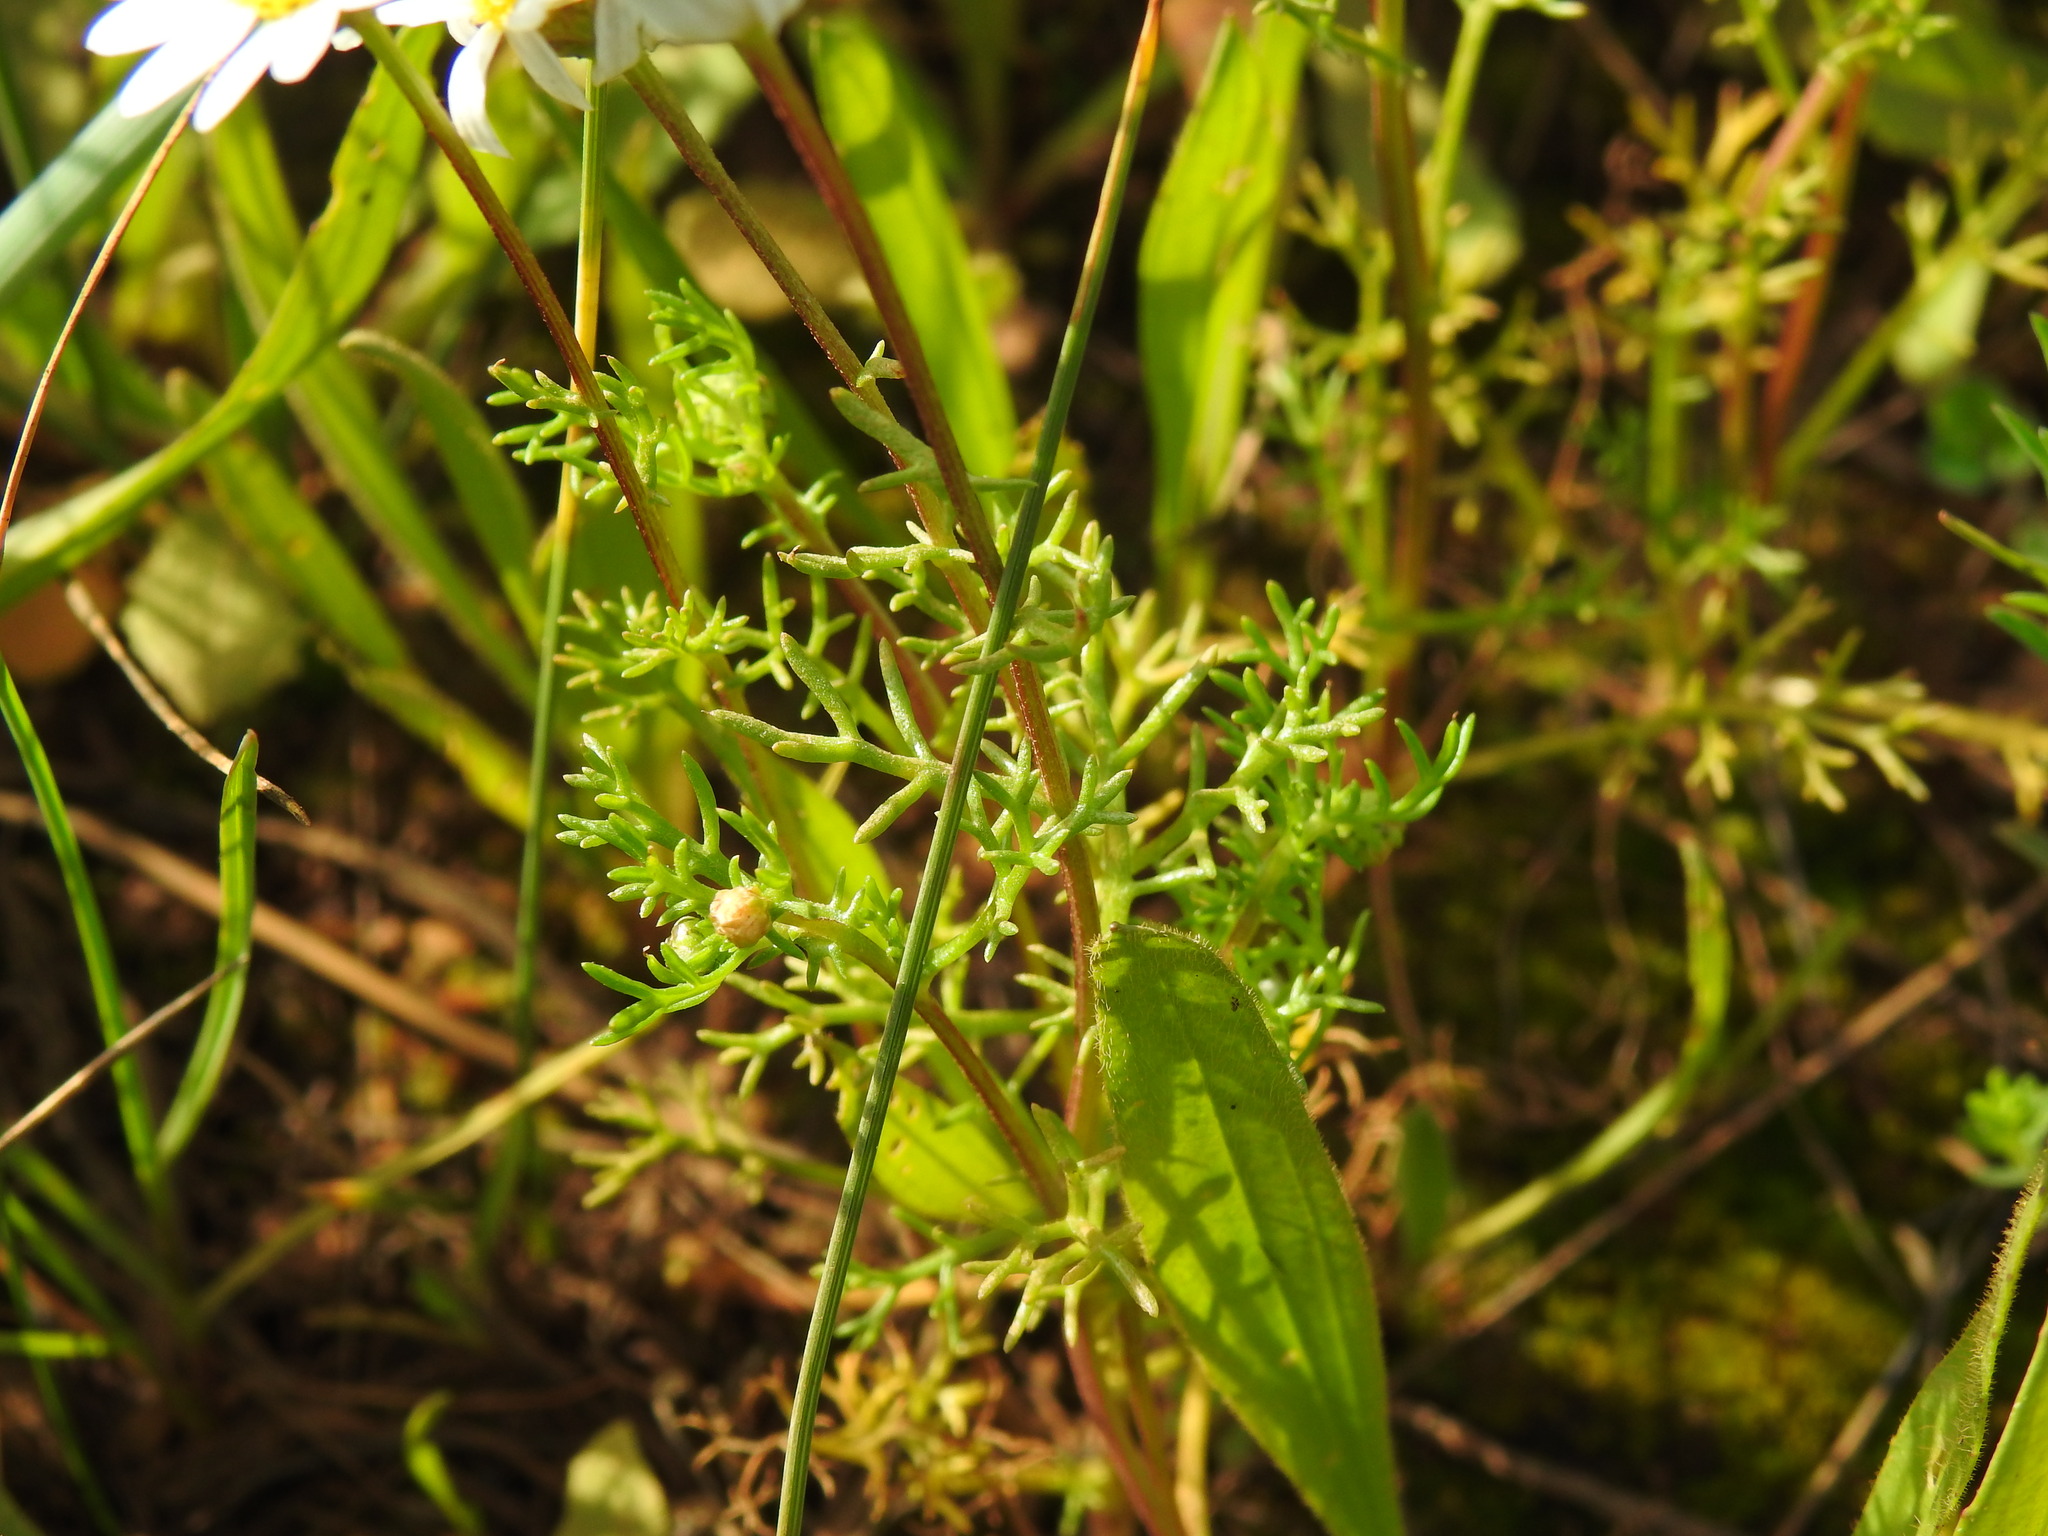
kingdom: Plantae
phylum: Tracheophyta
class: Magnoliopsida
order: Asterales
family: Asteraceae
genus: Chamaemelum
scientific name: Chamaemelum fuscatum
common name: Chamomile
